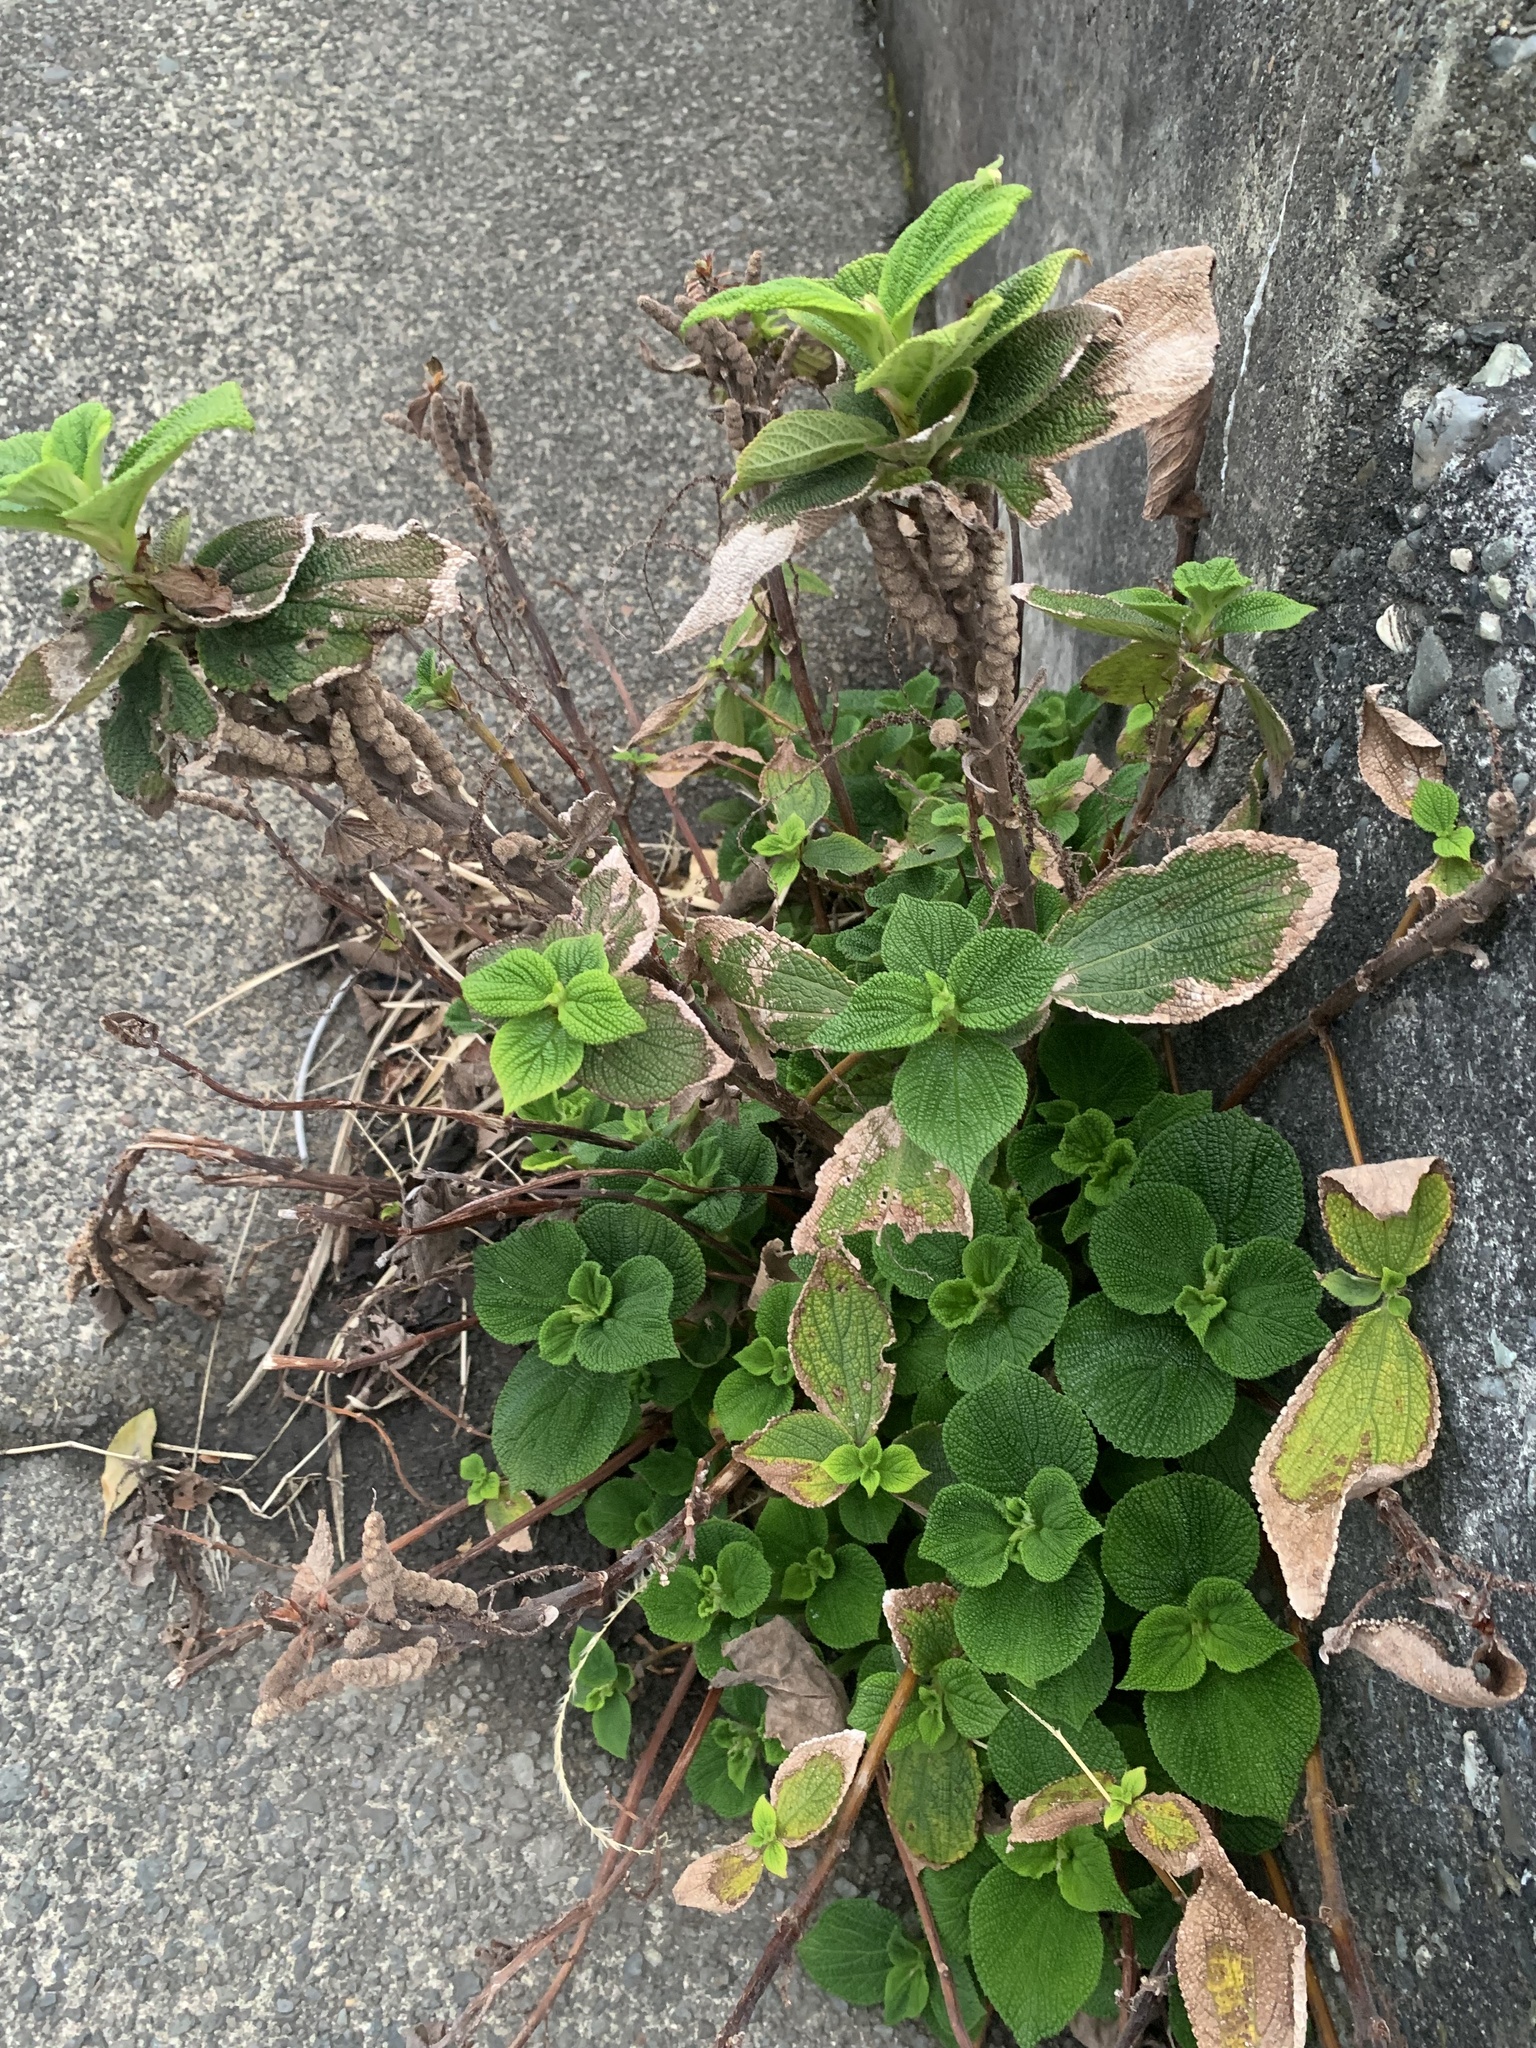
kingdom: Plantae
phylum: Tracheophyta
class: Magnoliopsida
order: Rosales
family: Urticaceae
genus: Boehmeria
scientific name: Boehmeria splitgerbera
